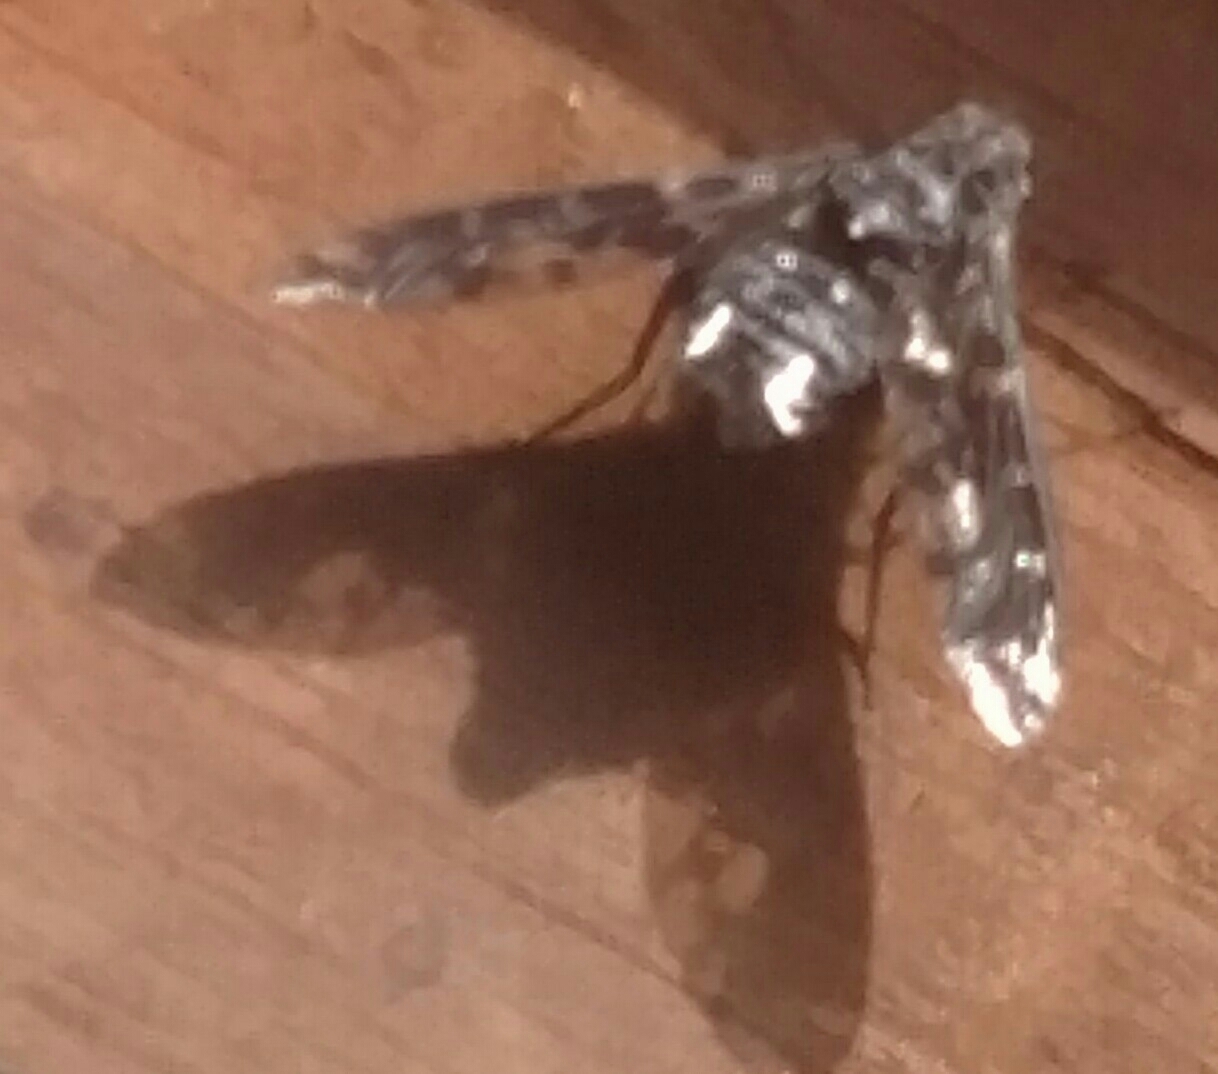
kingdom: Animalia
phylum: Arthropoda
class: Insecta
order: Diptera
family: Bombyliidae
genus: Xenox
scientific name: Xenox tigrinus
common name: Tiger bee fly
